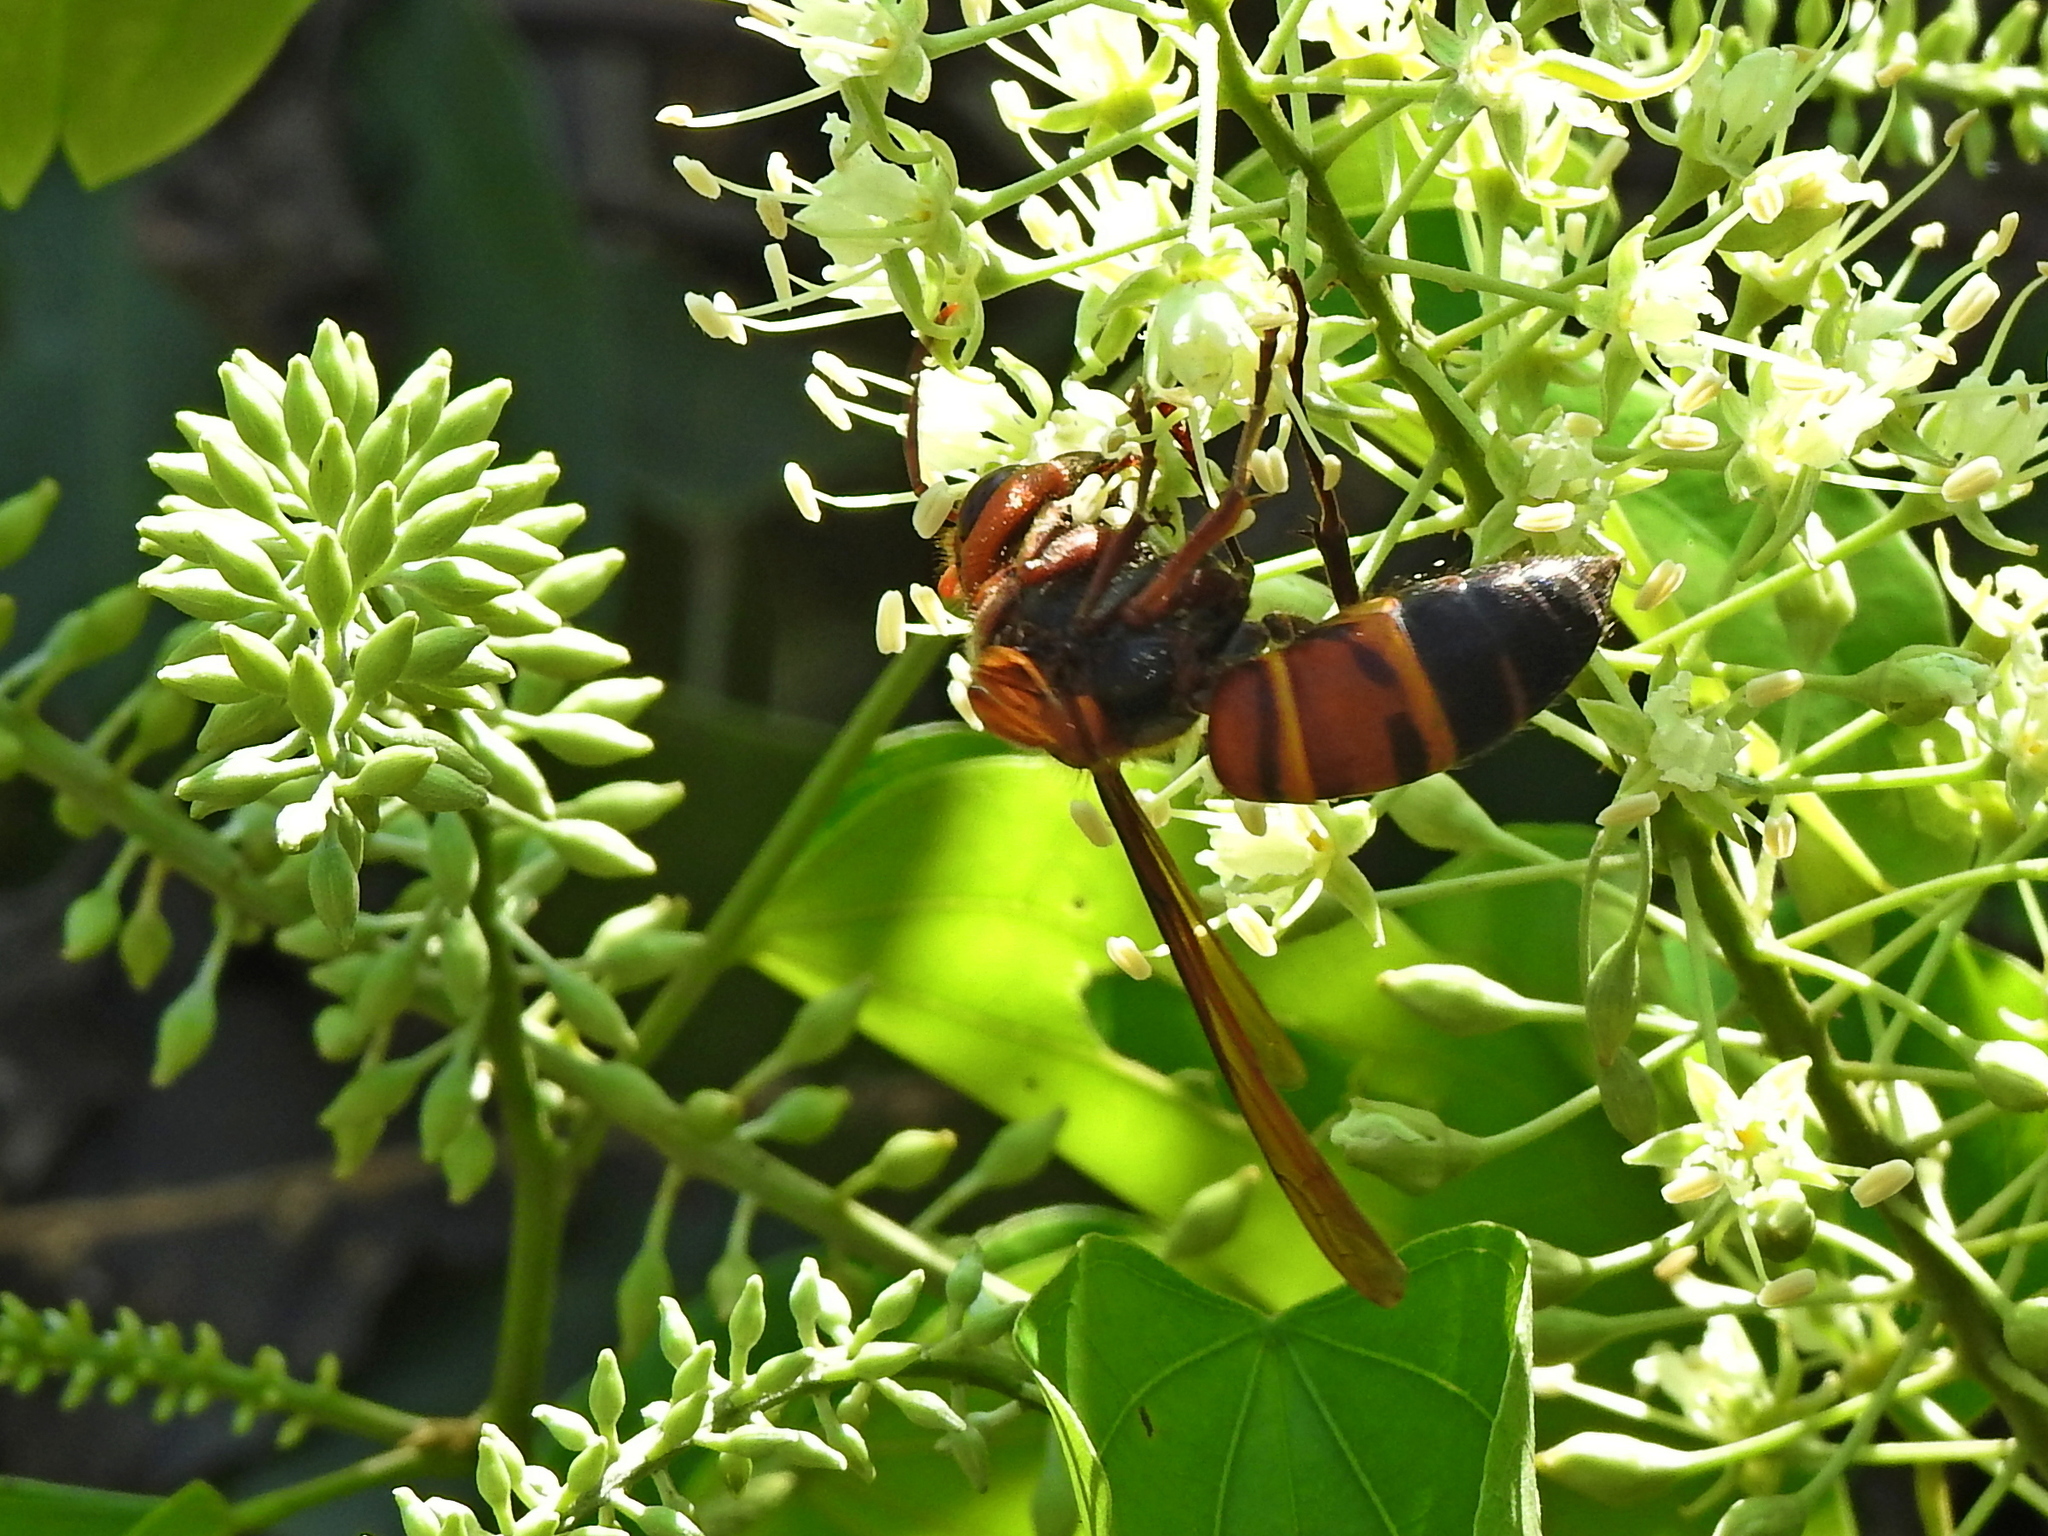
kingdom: Animalia
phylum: Arthropoda
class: Insecta
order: Hymenoptera
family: Vespidae
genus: Vespa
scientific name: Vespa ducalis
